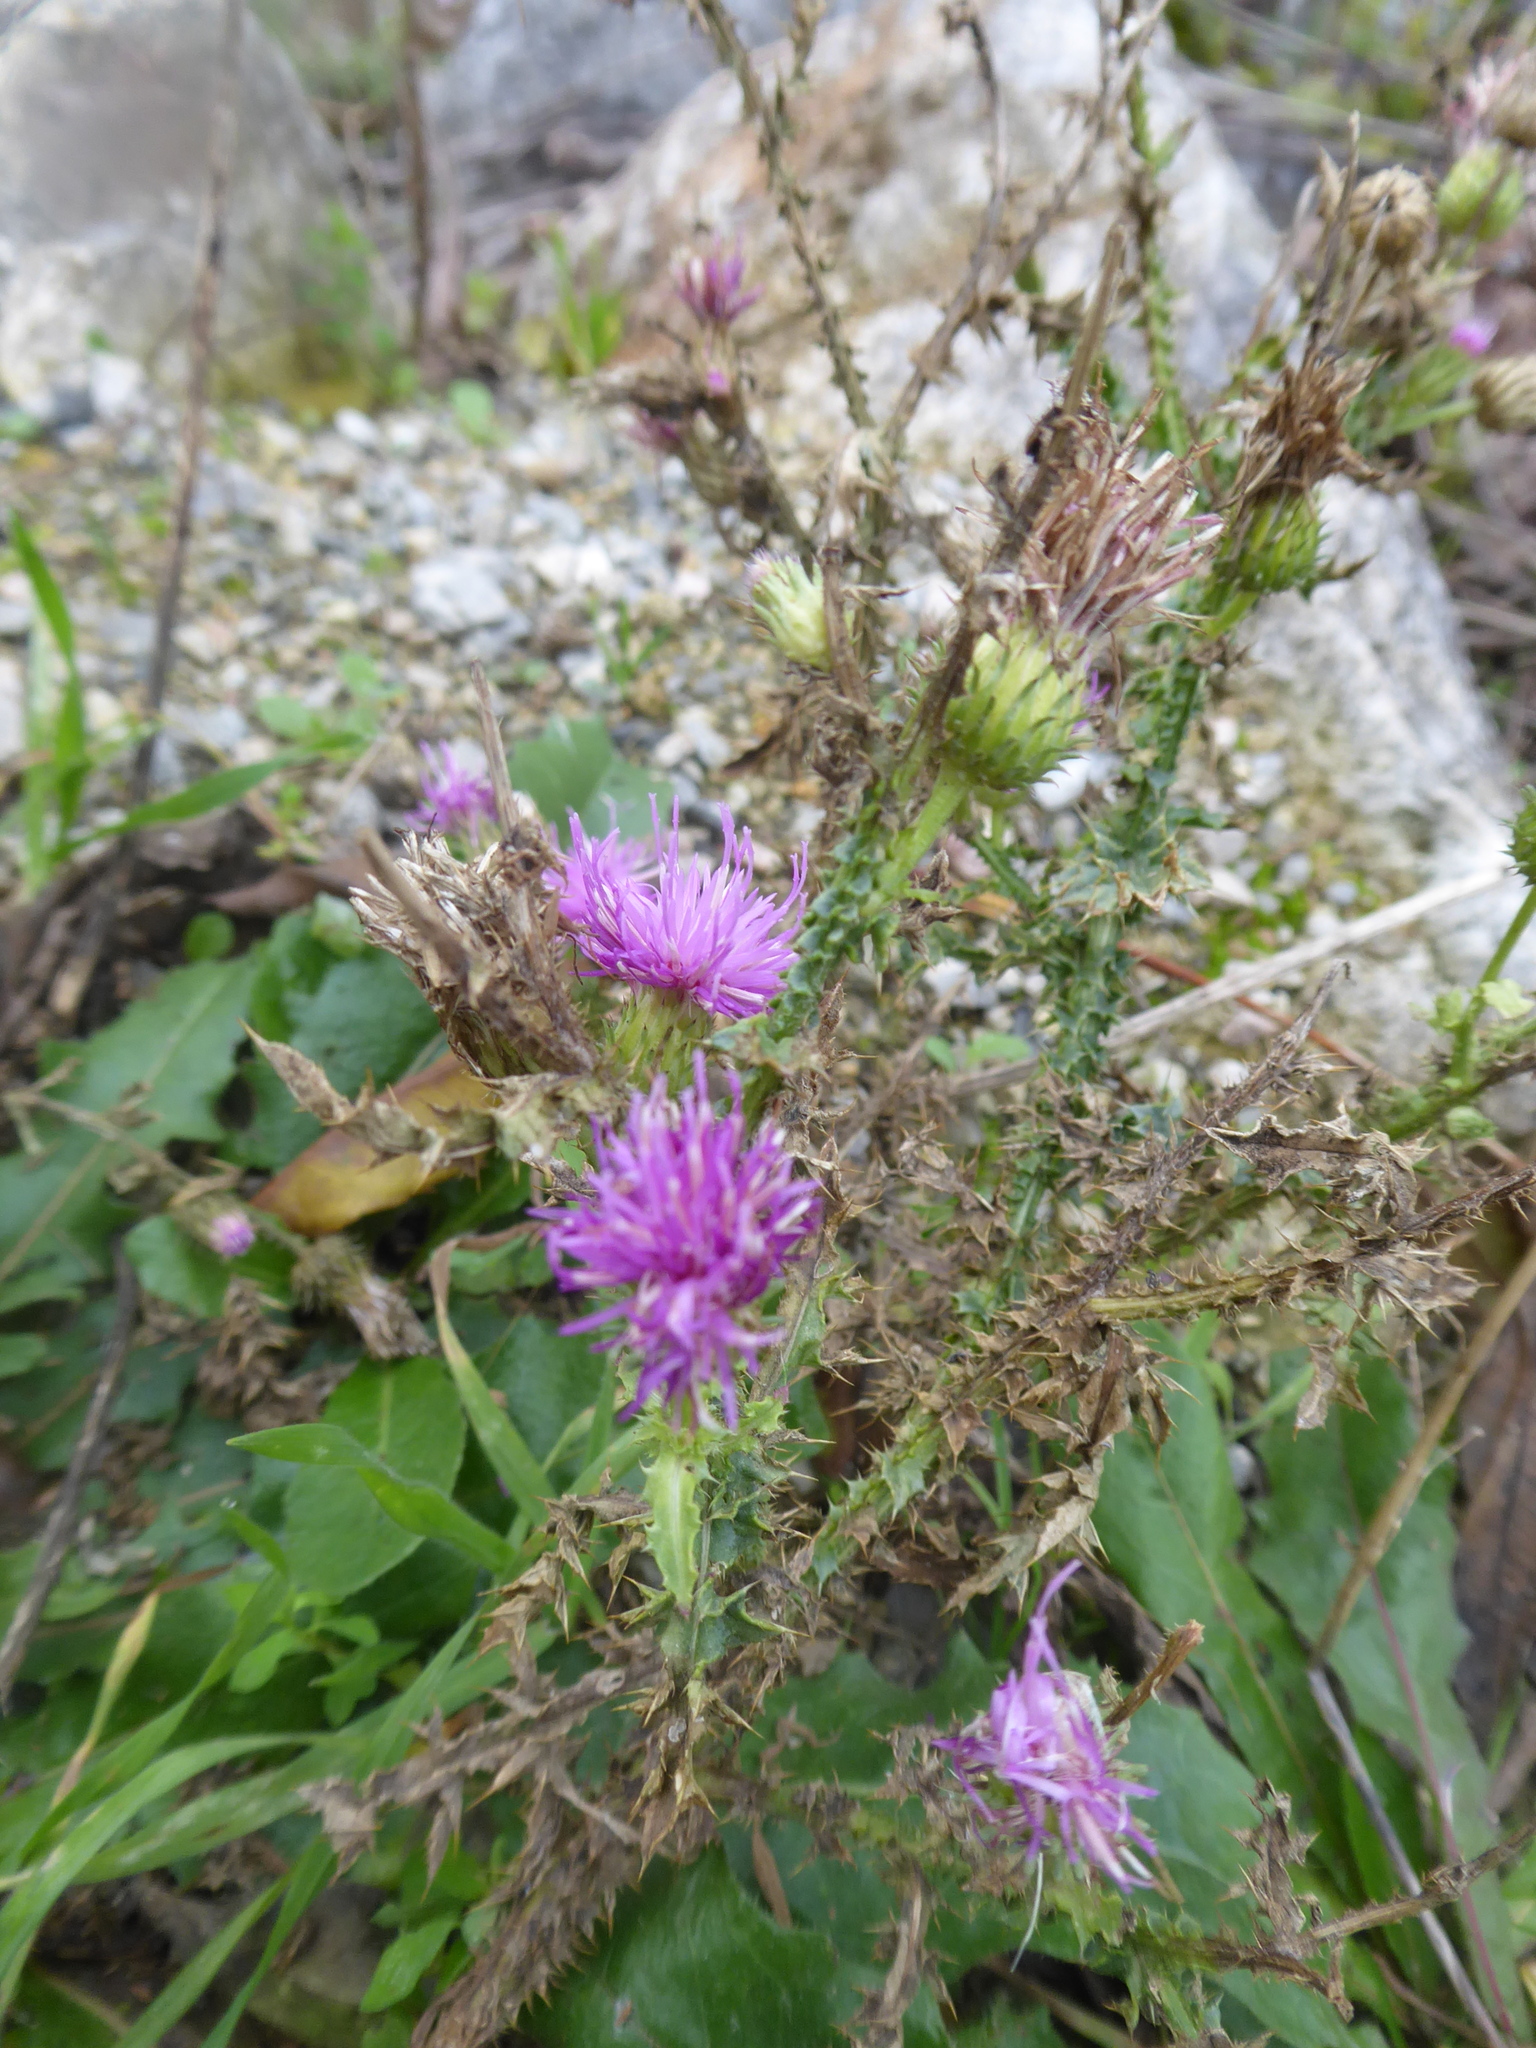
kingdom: Plantae
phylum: Tracheophyta
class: Magnoliopsida
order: Asterales
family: Asteraceae
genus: Carduus
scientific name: Carduus acanthoides
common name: Plumeless thistle
